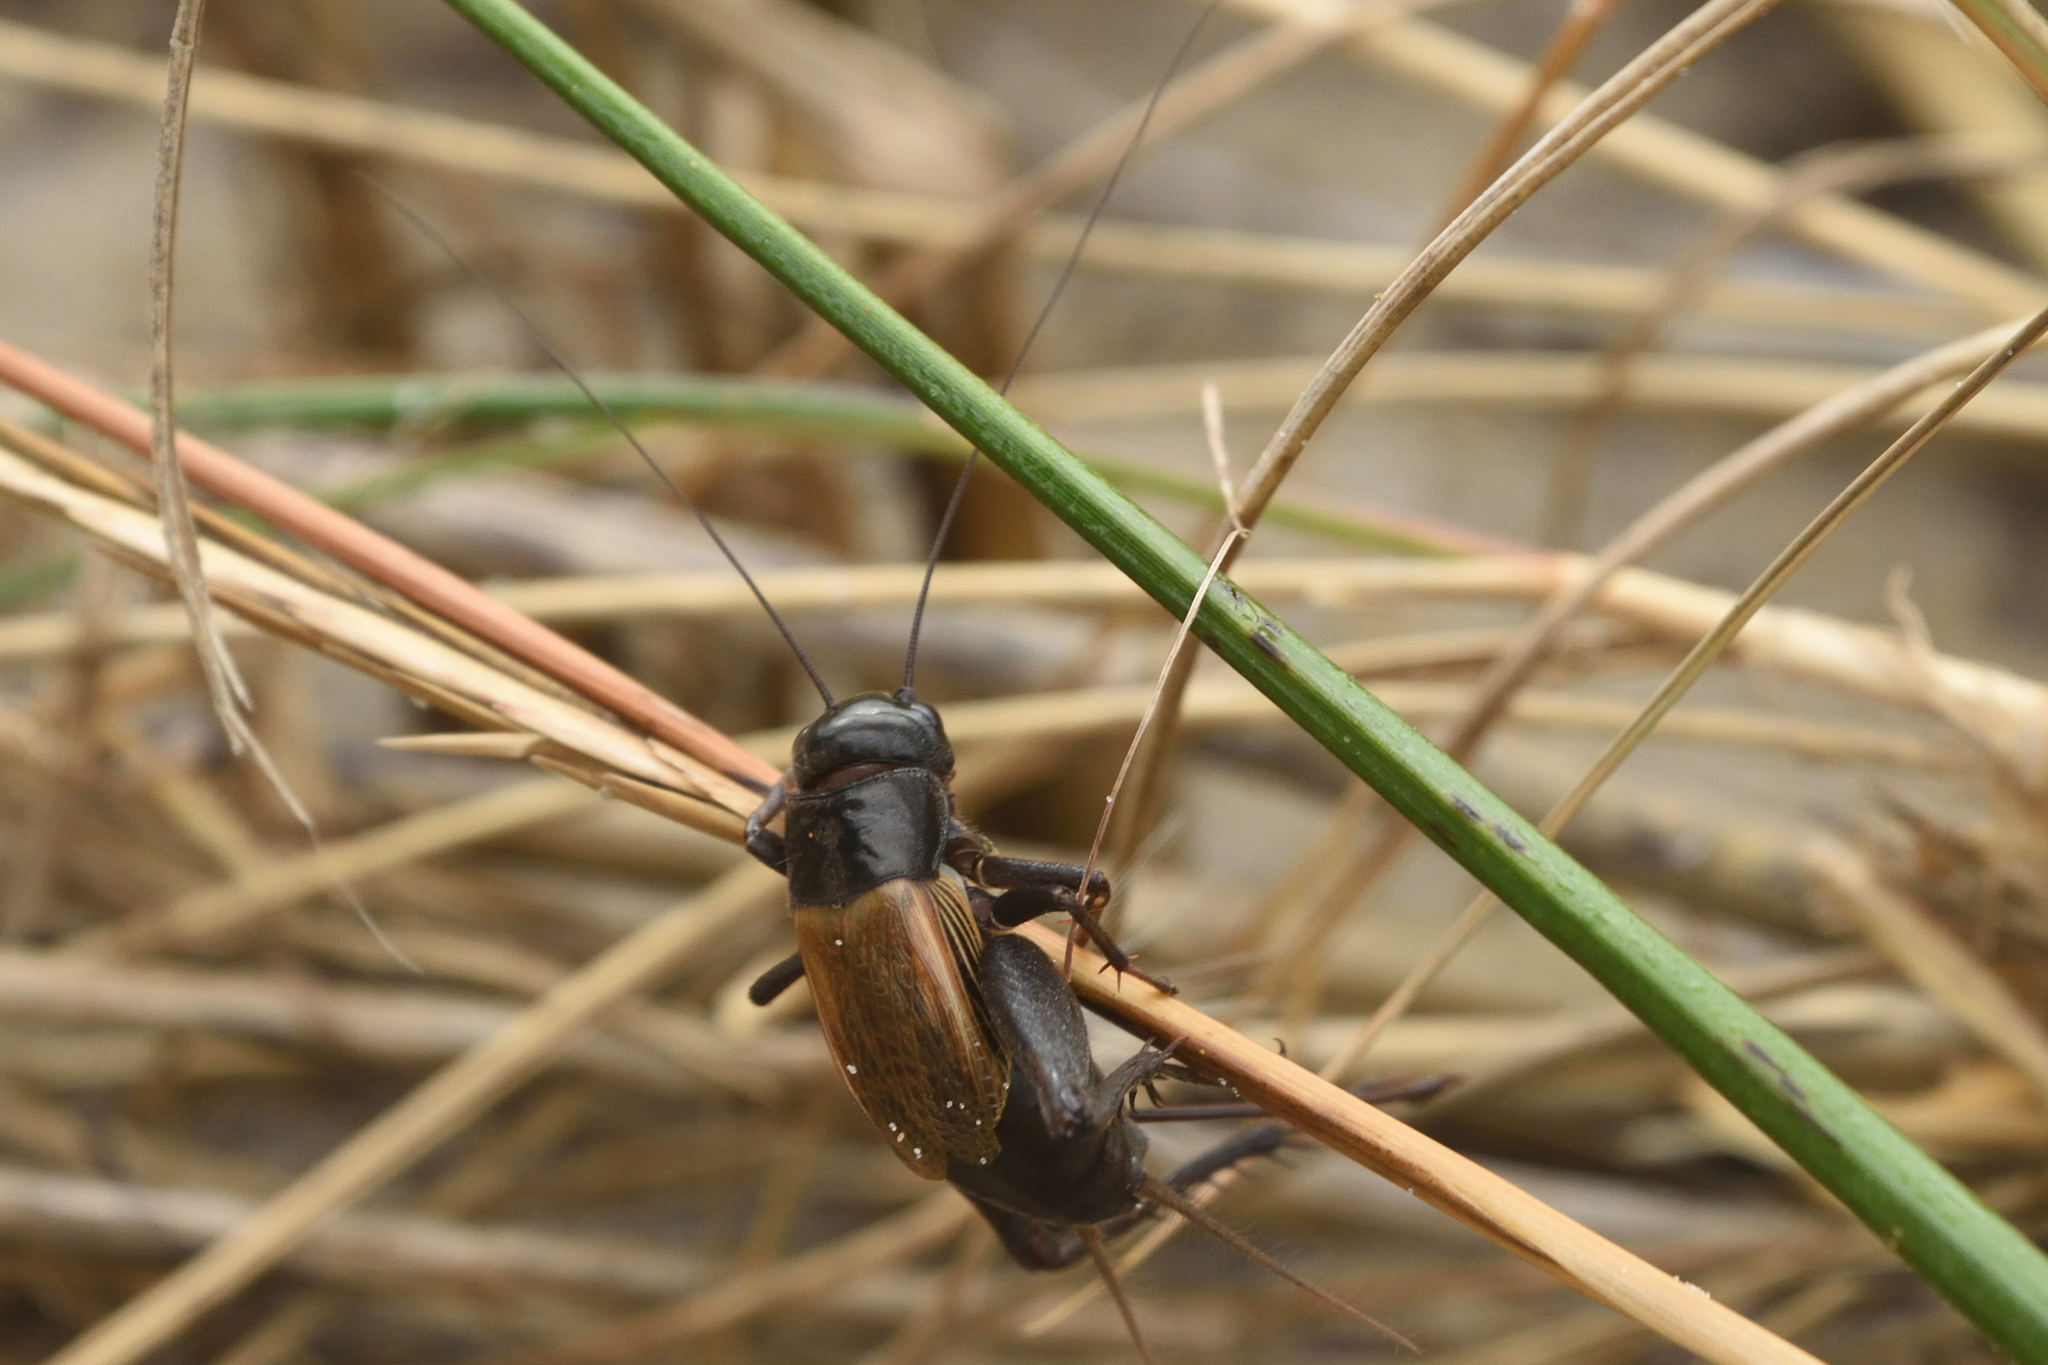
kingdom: Animalia
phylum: Arthropoda
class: Insecta
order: Orthoptera
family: Gryllidae
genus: Gryllus
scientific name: Gryllus pennsylvanicus
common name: Fall field cricket
